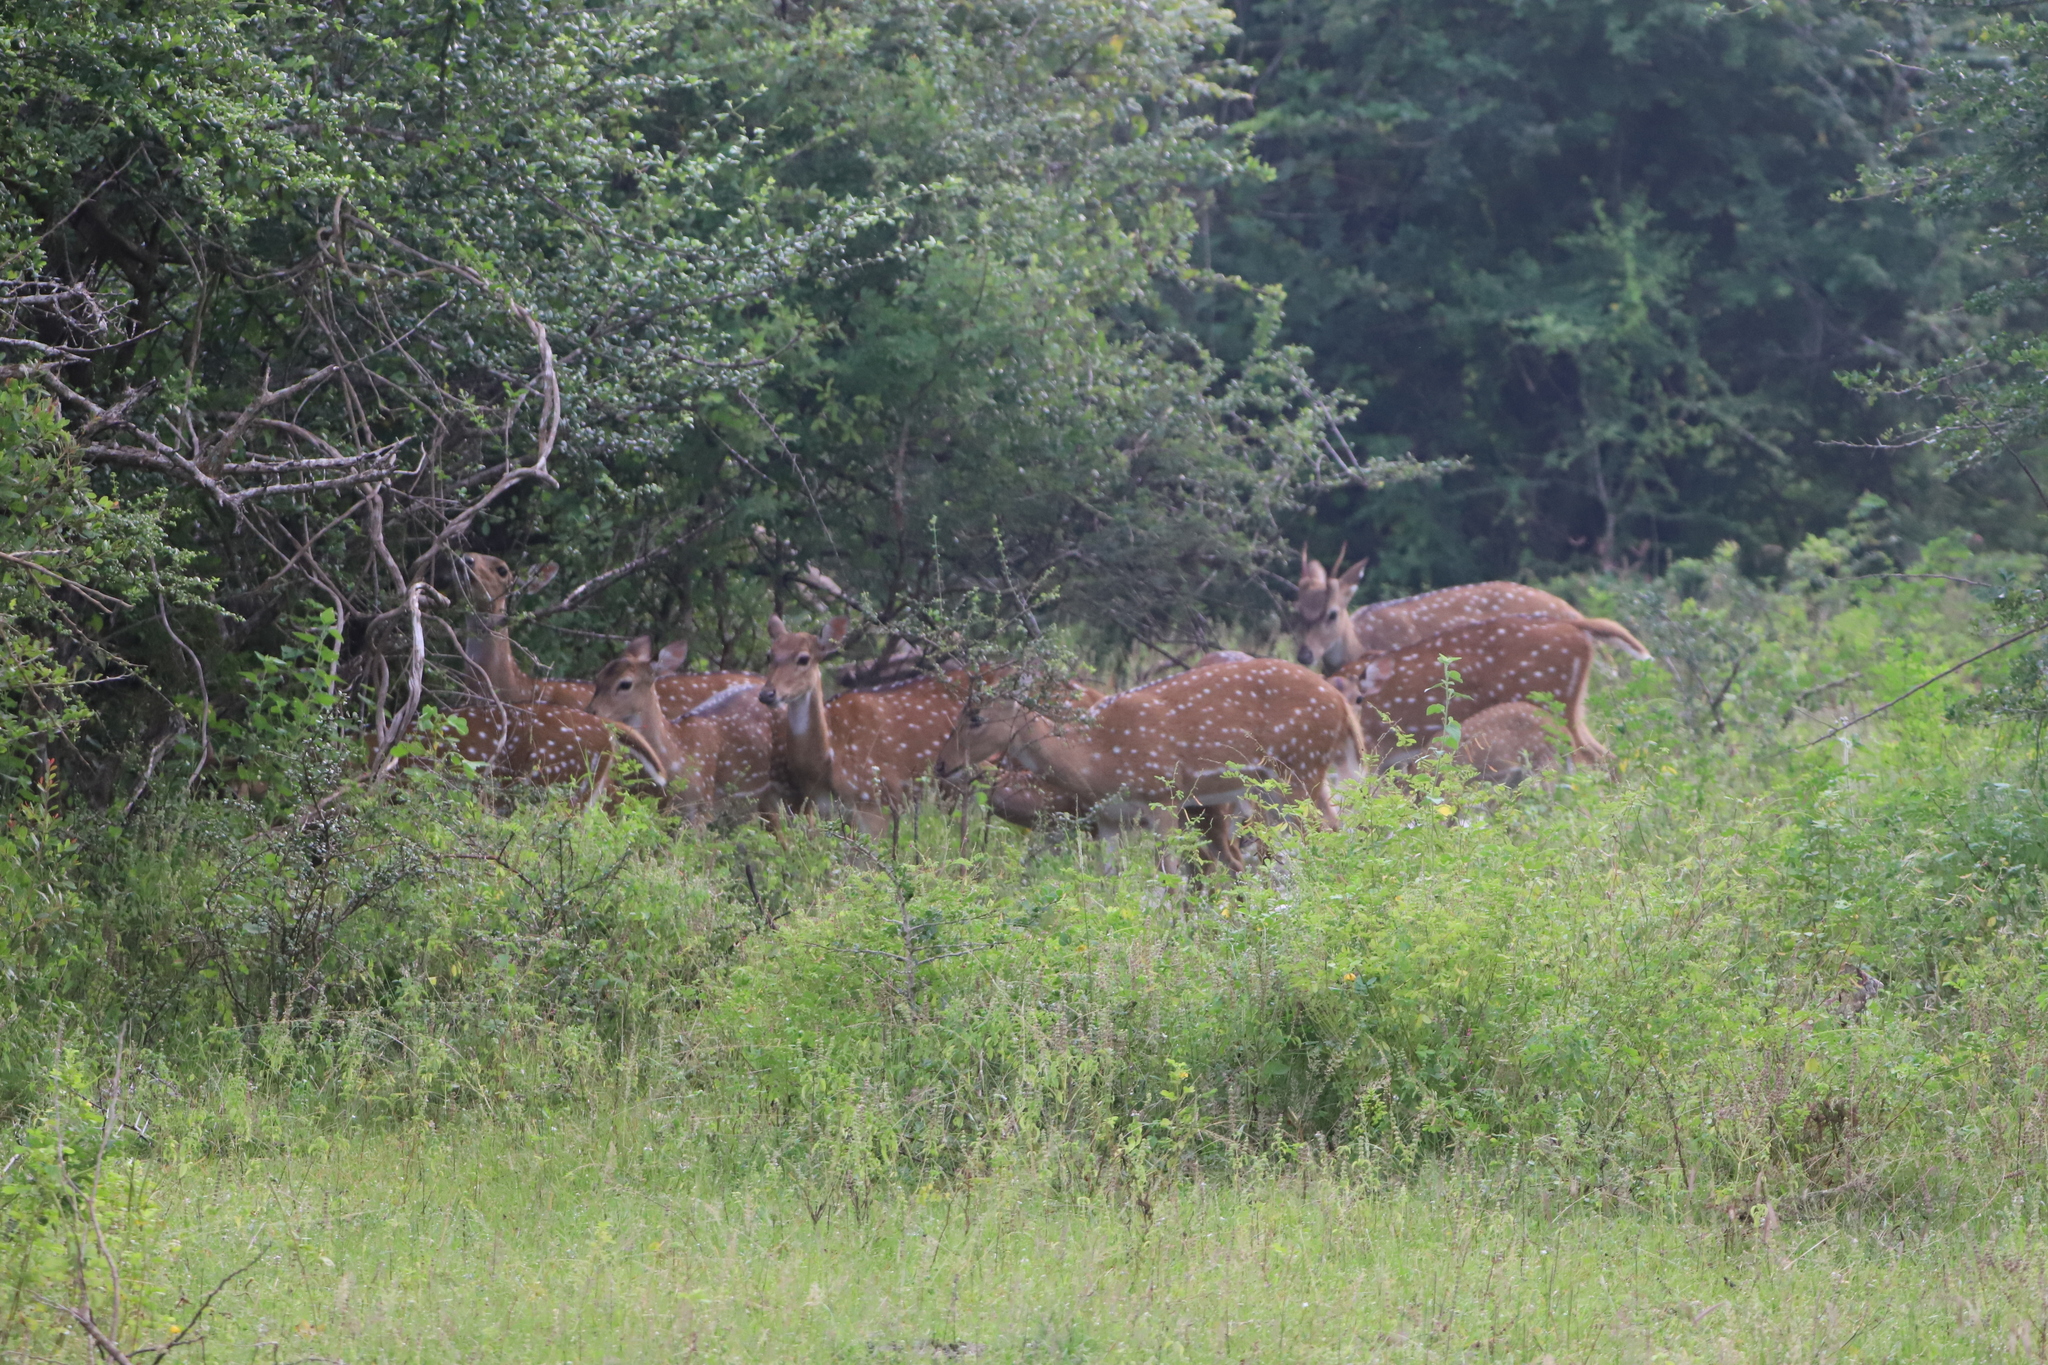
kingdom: Animalia
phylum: Chordata
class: Mammalia
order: Artiodactyla
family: Cervidae
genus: Axis
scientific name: Axis axis
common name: Chital
